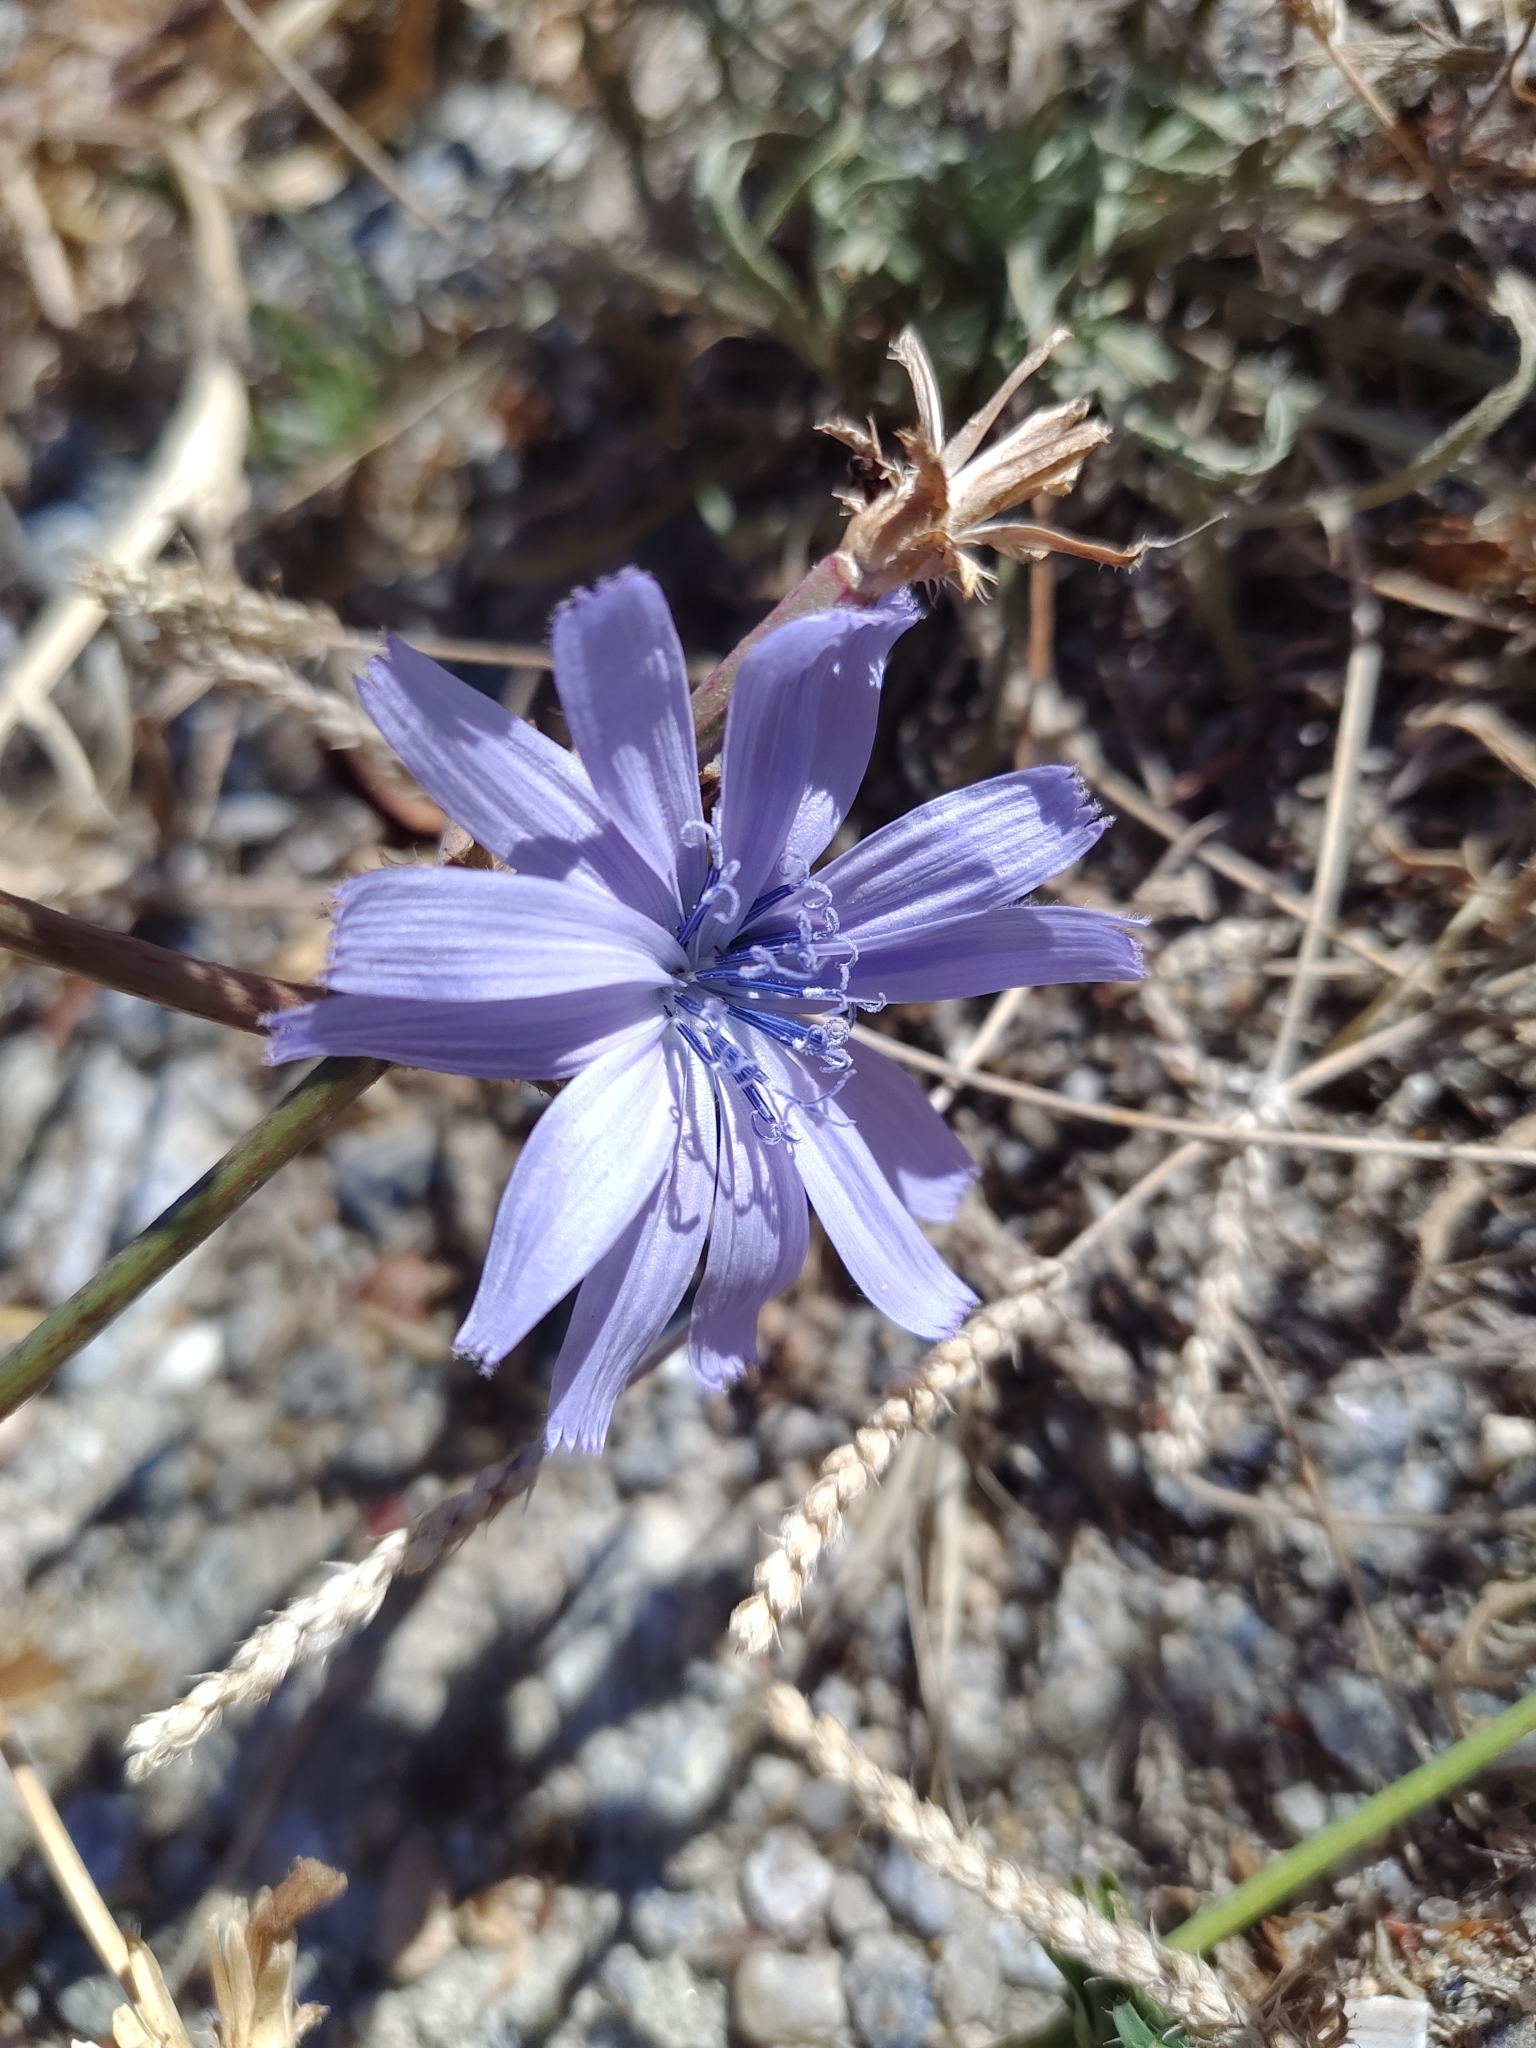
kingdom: Plantae
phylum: Tracheophyta
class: Magnoliopsida
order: Asterales
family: Asteraceae
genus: Cichorium
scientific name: Cichorium intybus
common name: Chicory
